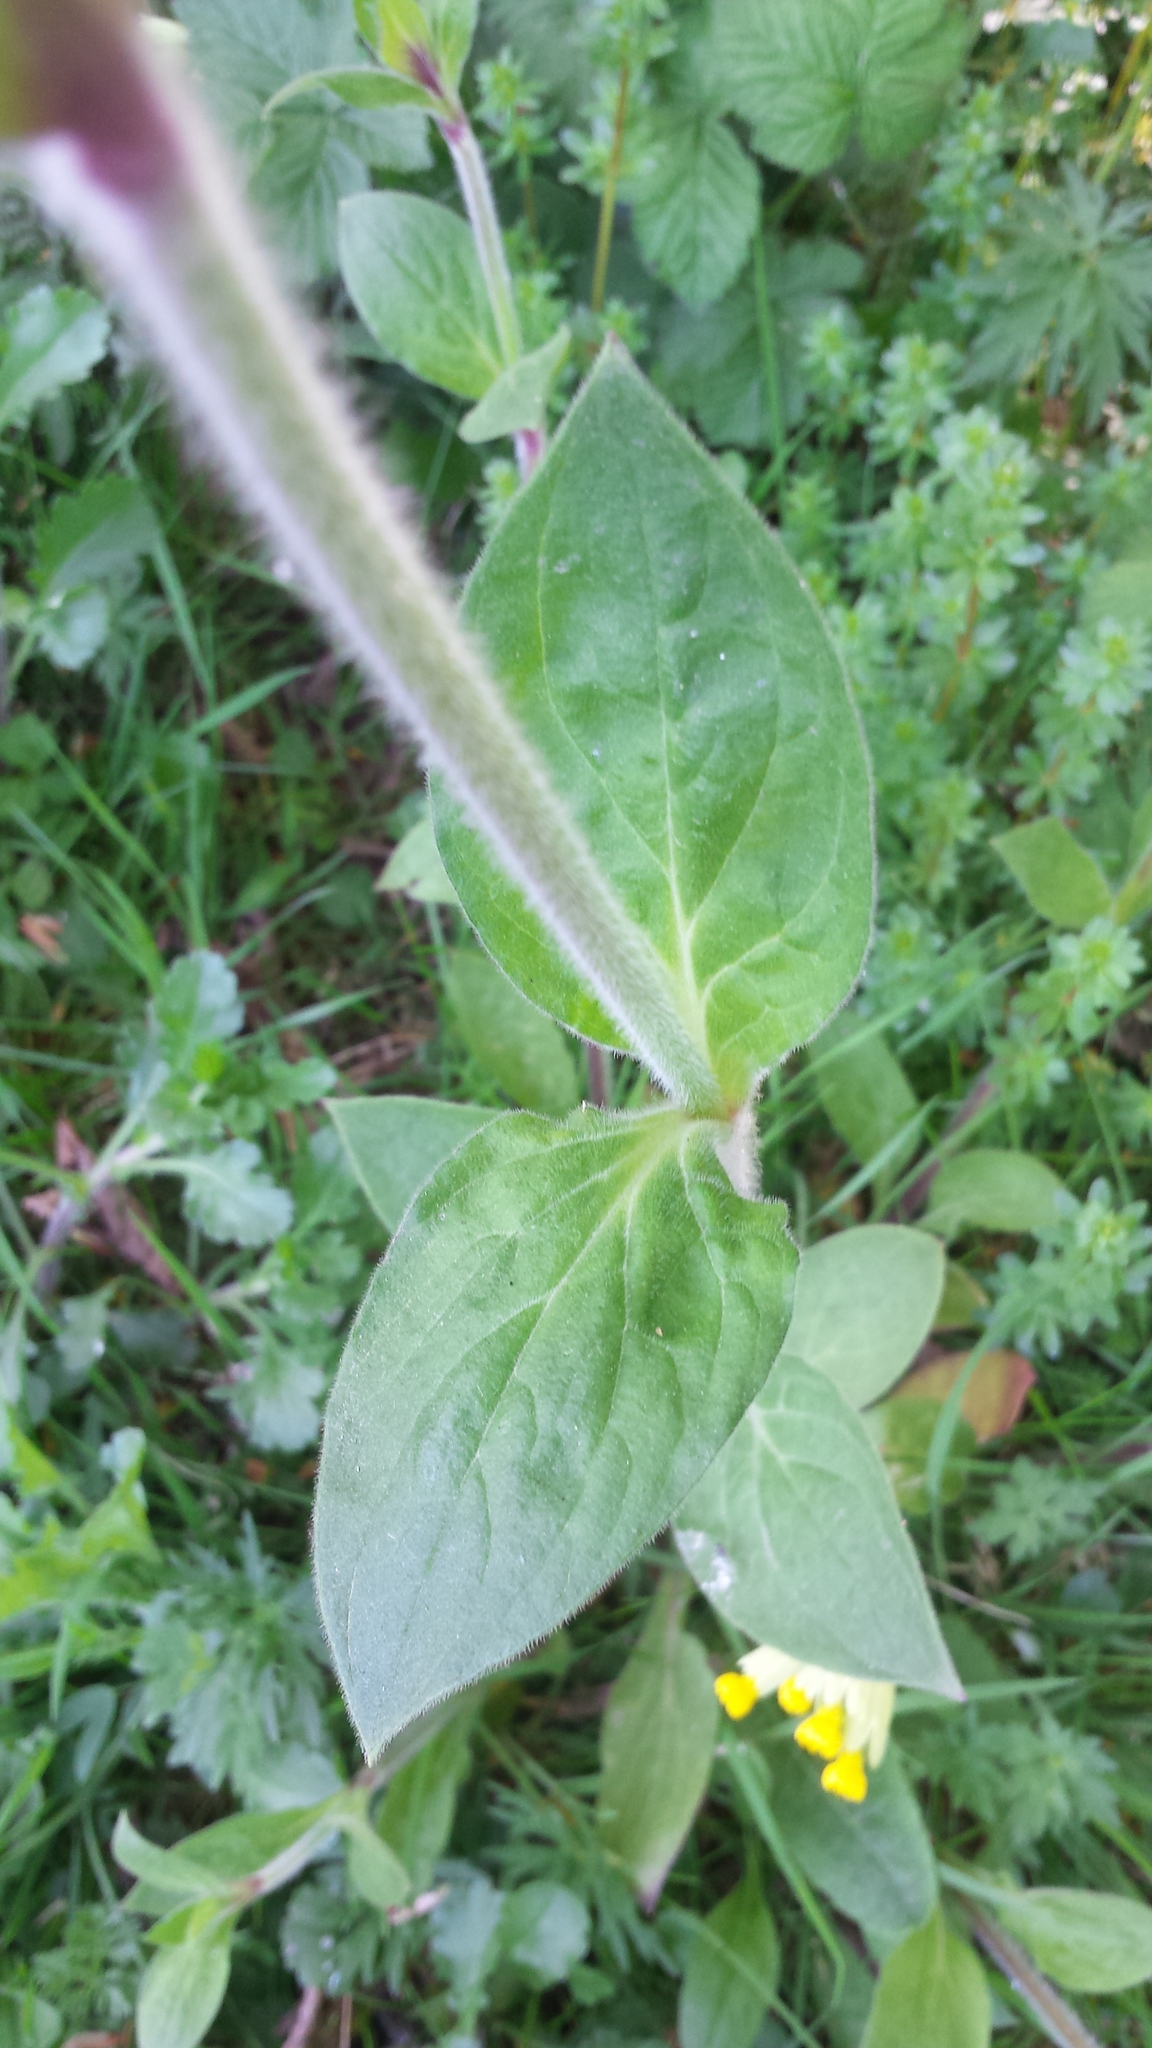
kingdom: Plantae
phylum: Tracheophyta
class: Magnoliopsida
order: Caryophyllales
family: Caryophyllaceae
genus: Silene
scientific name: Silene dioica
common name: Red campion
